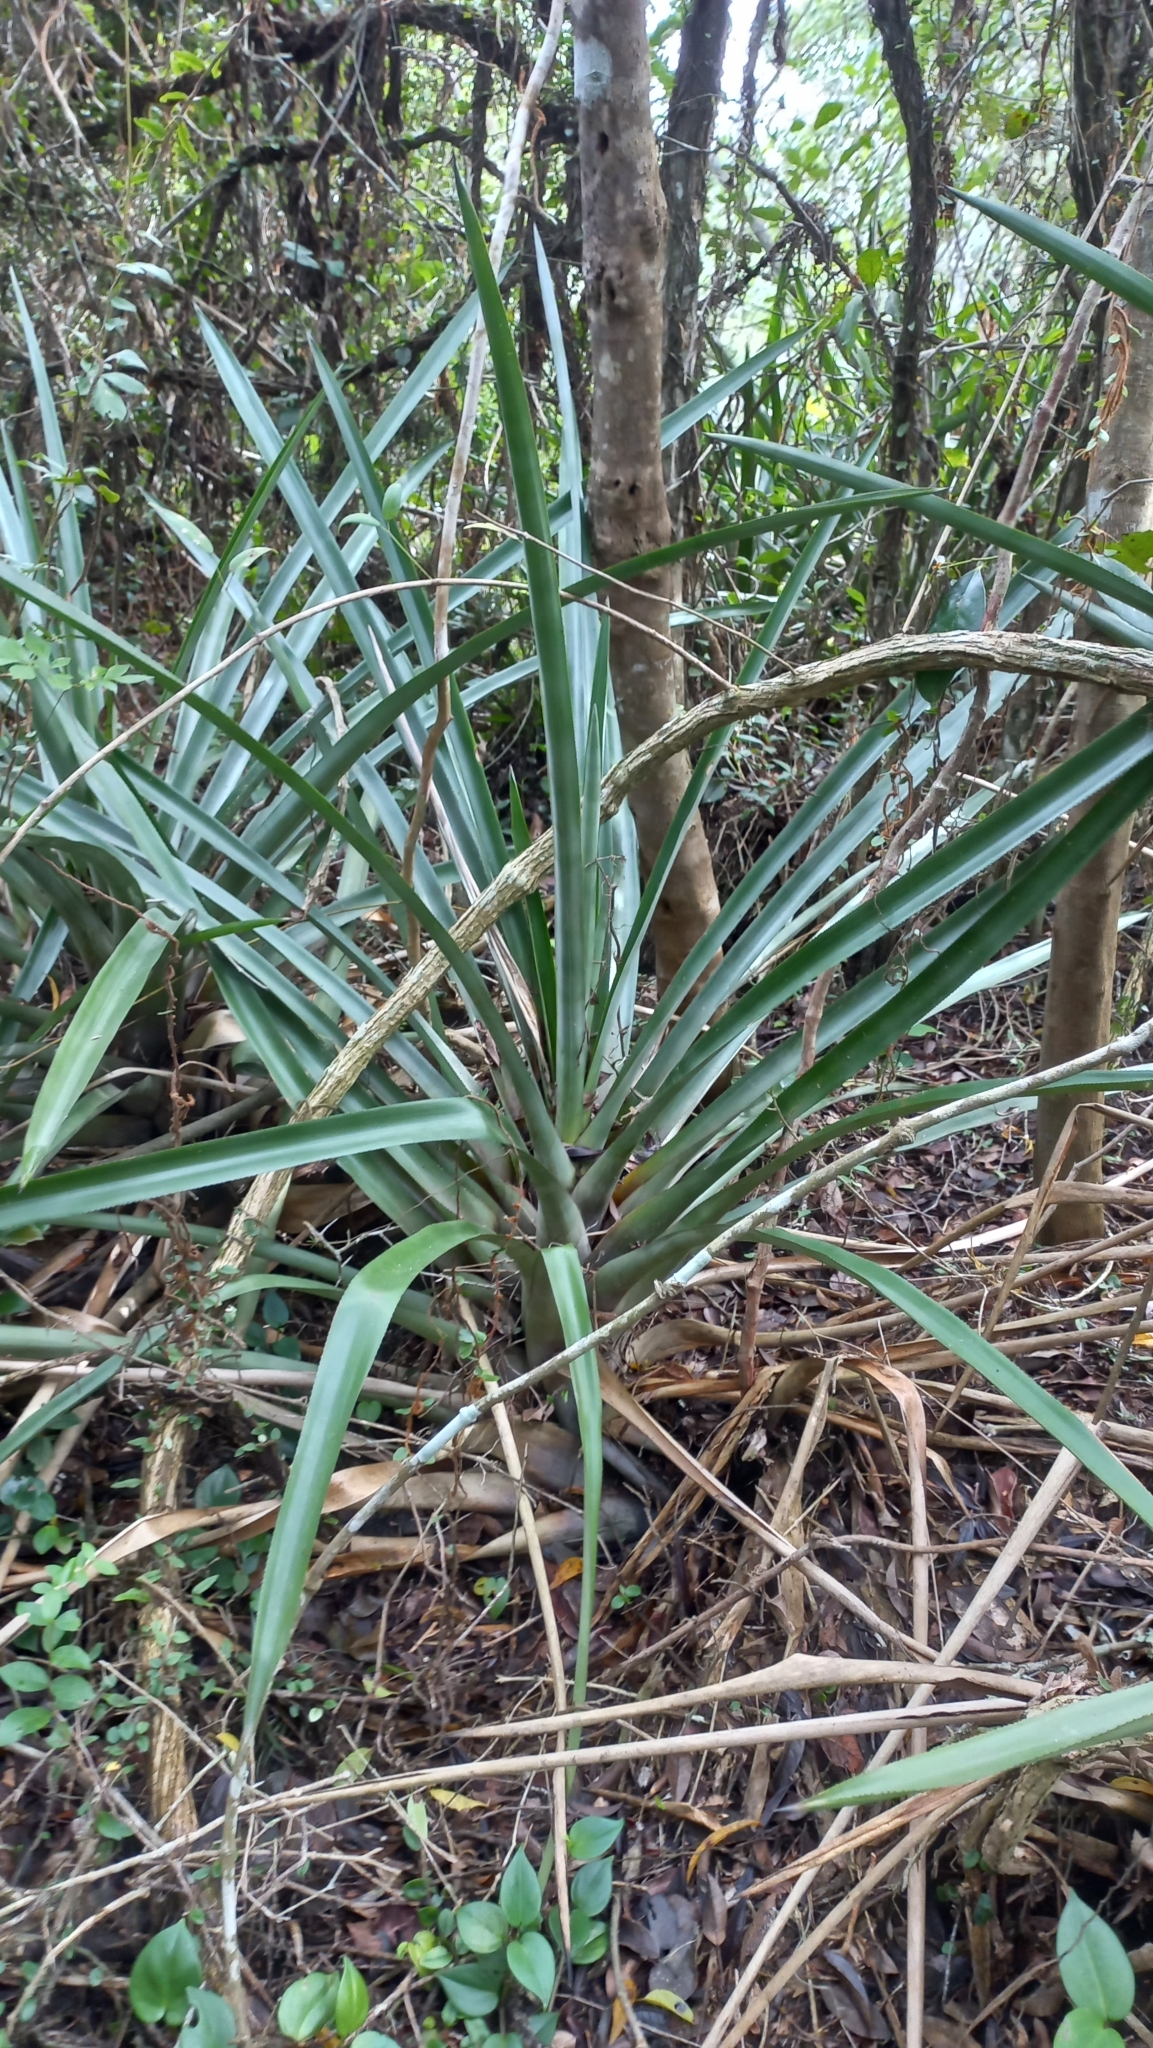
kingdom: Plantae
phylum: Tracheophyta
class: Liliopsida
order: Poales
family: Bromeliaceae
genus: Bromelia
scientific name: Bromelia antiacantha
